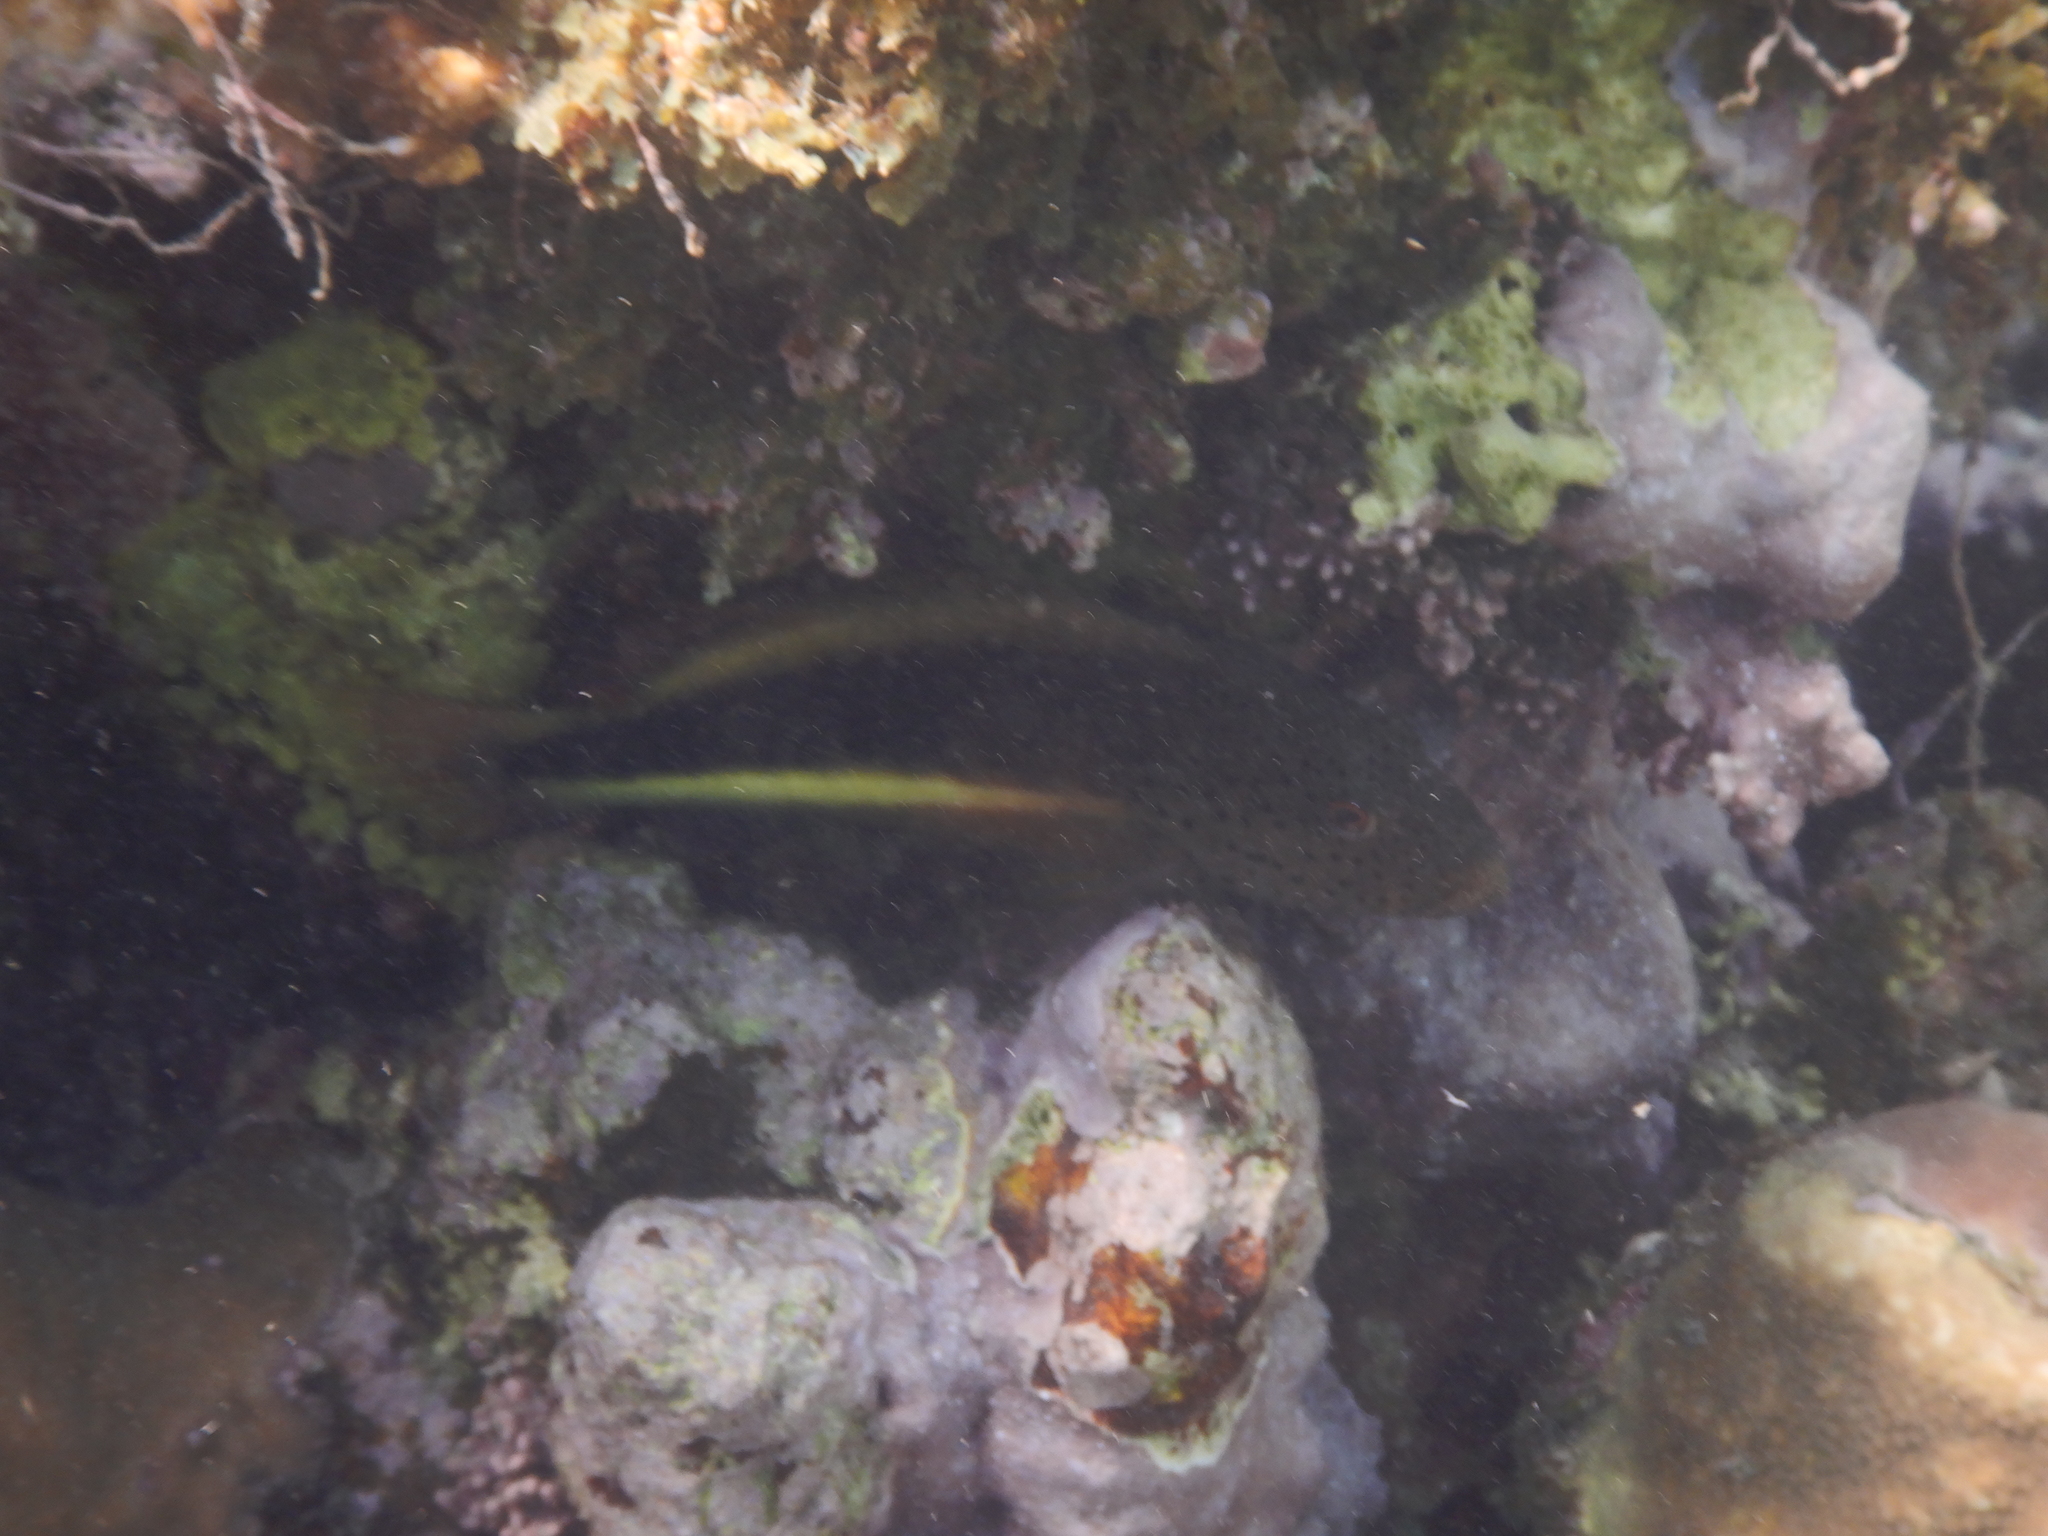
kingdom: Animalia
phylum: Chordata
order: Perciformes
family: Cirrhitidae
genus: Paracirrhites
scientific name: Paracirrhites forsteri
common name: Freckled hawkfish
